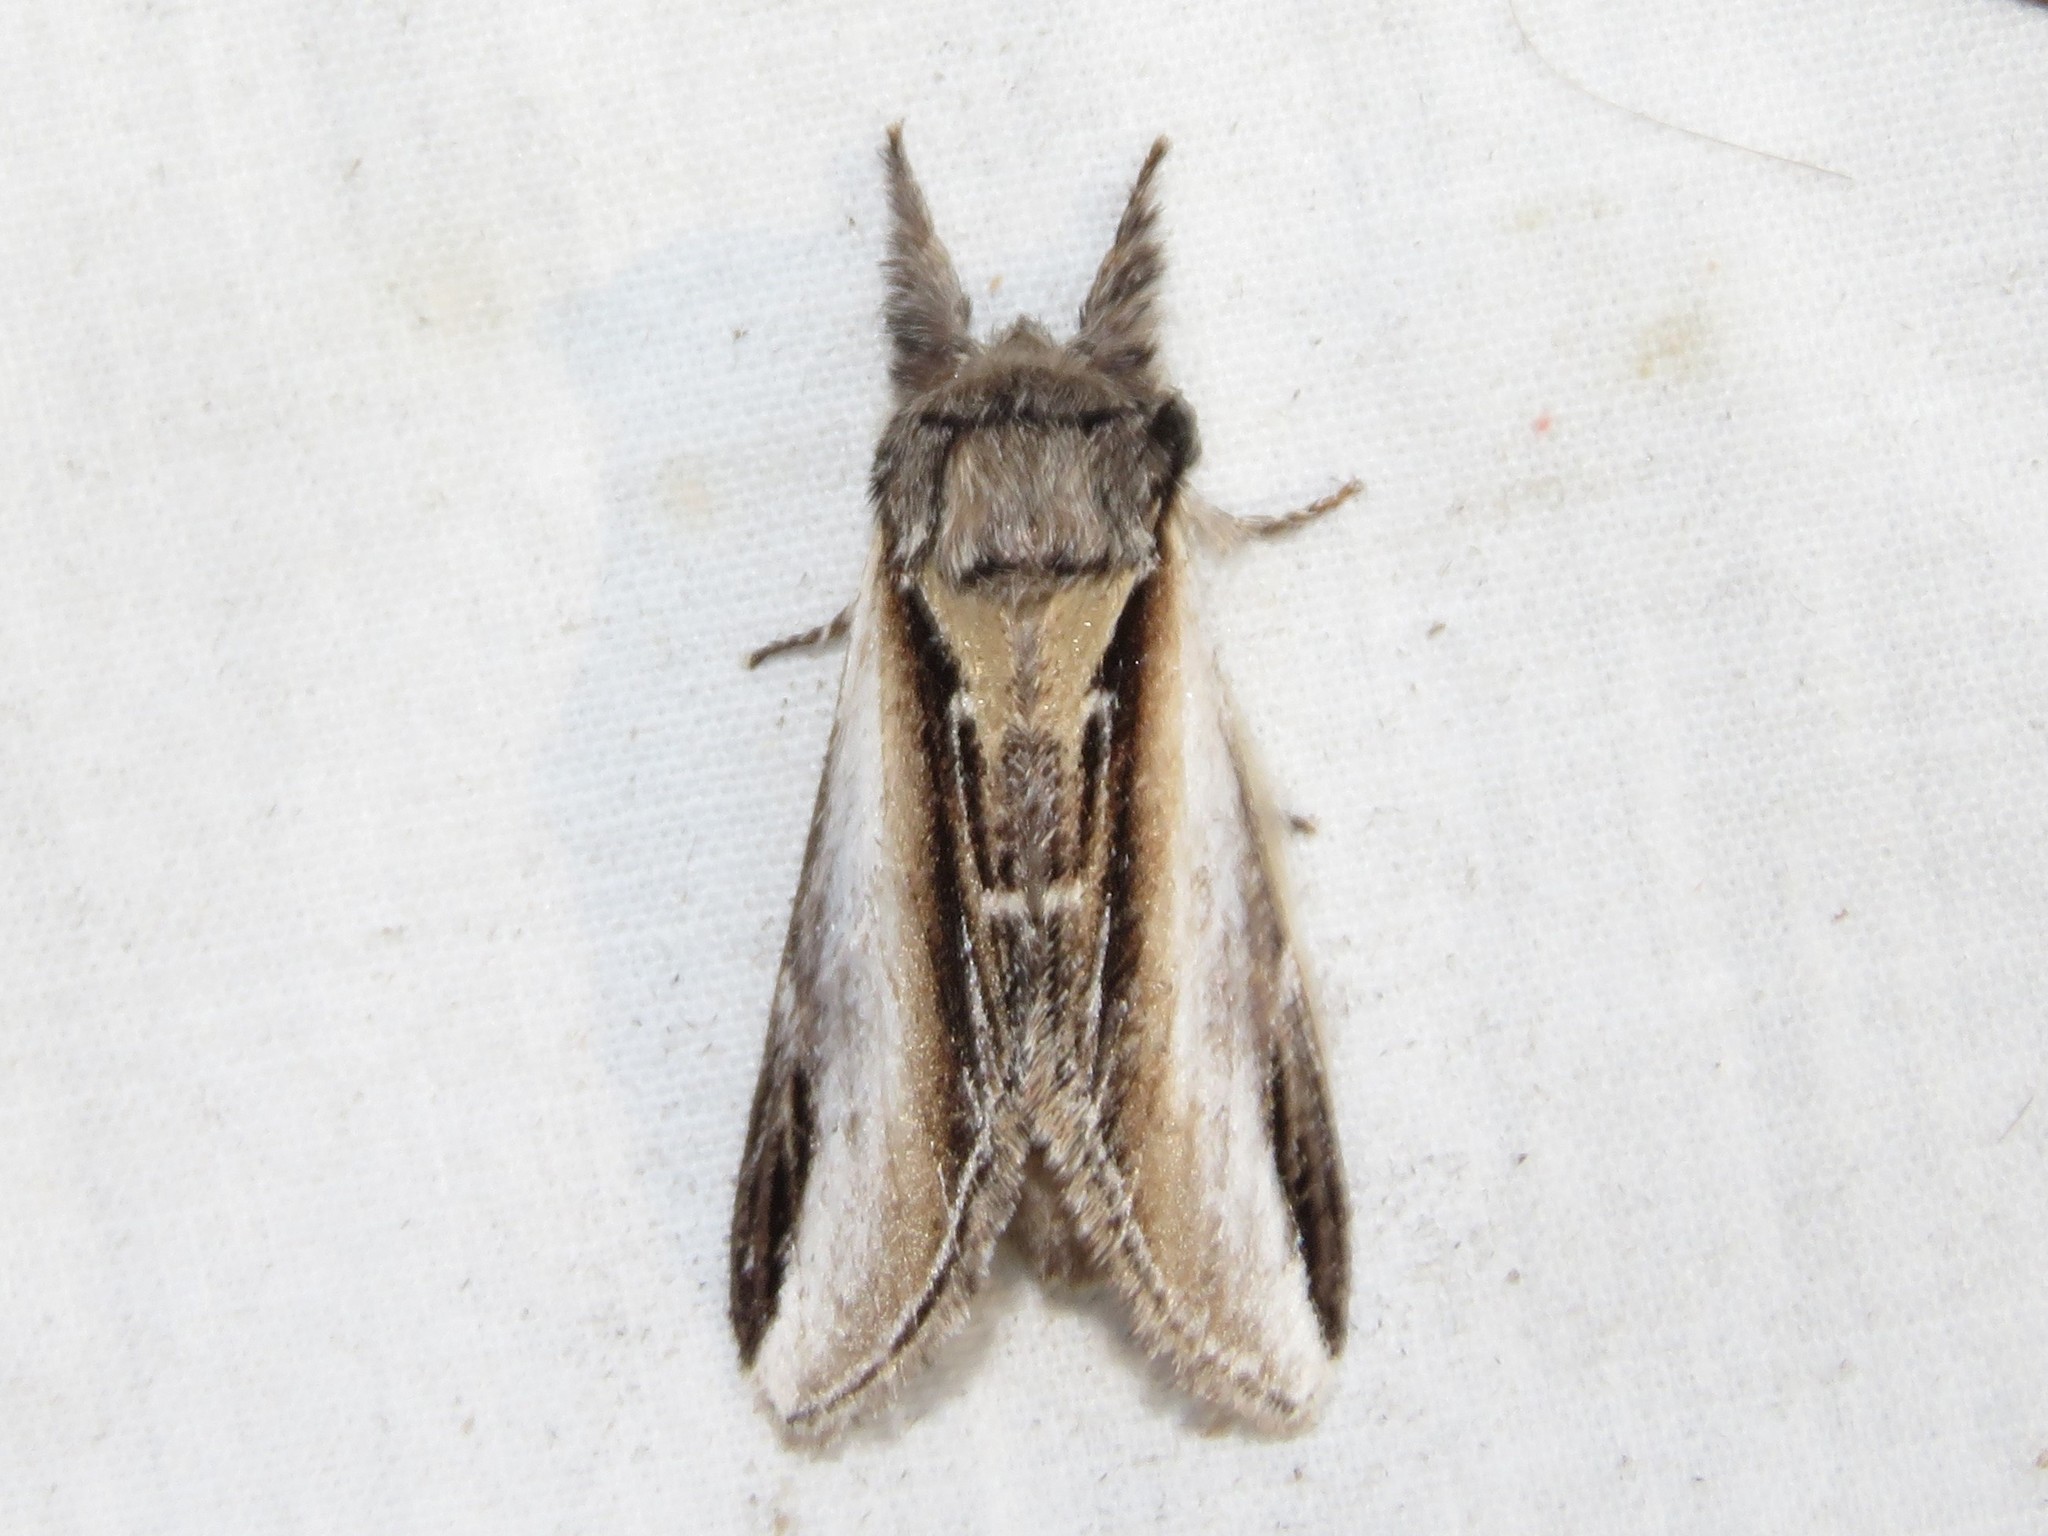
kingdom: Animalia
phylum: Arthropoda
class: Insecta
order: Lepidoptera
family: Notodontidae
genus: Pheosia
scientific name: Pheosia rimosa
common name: Black-rimmed prominent
